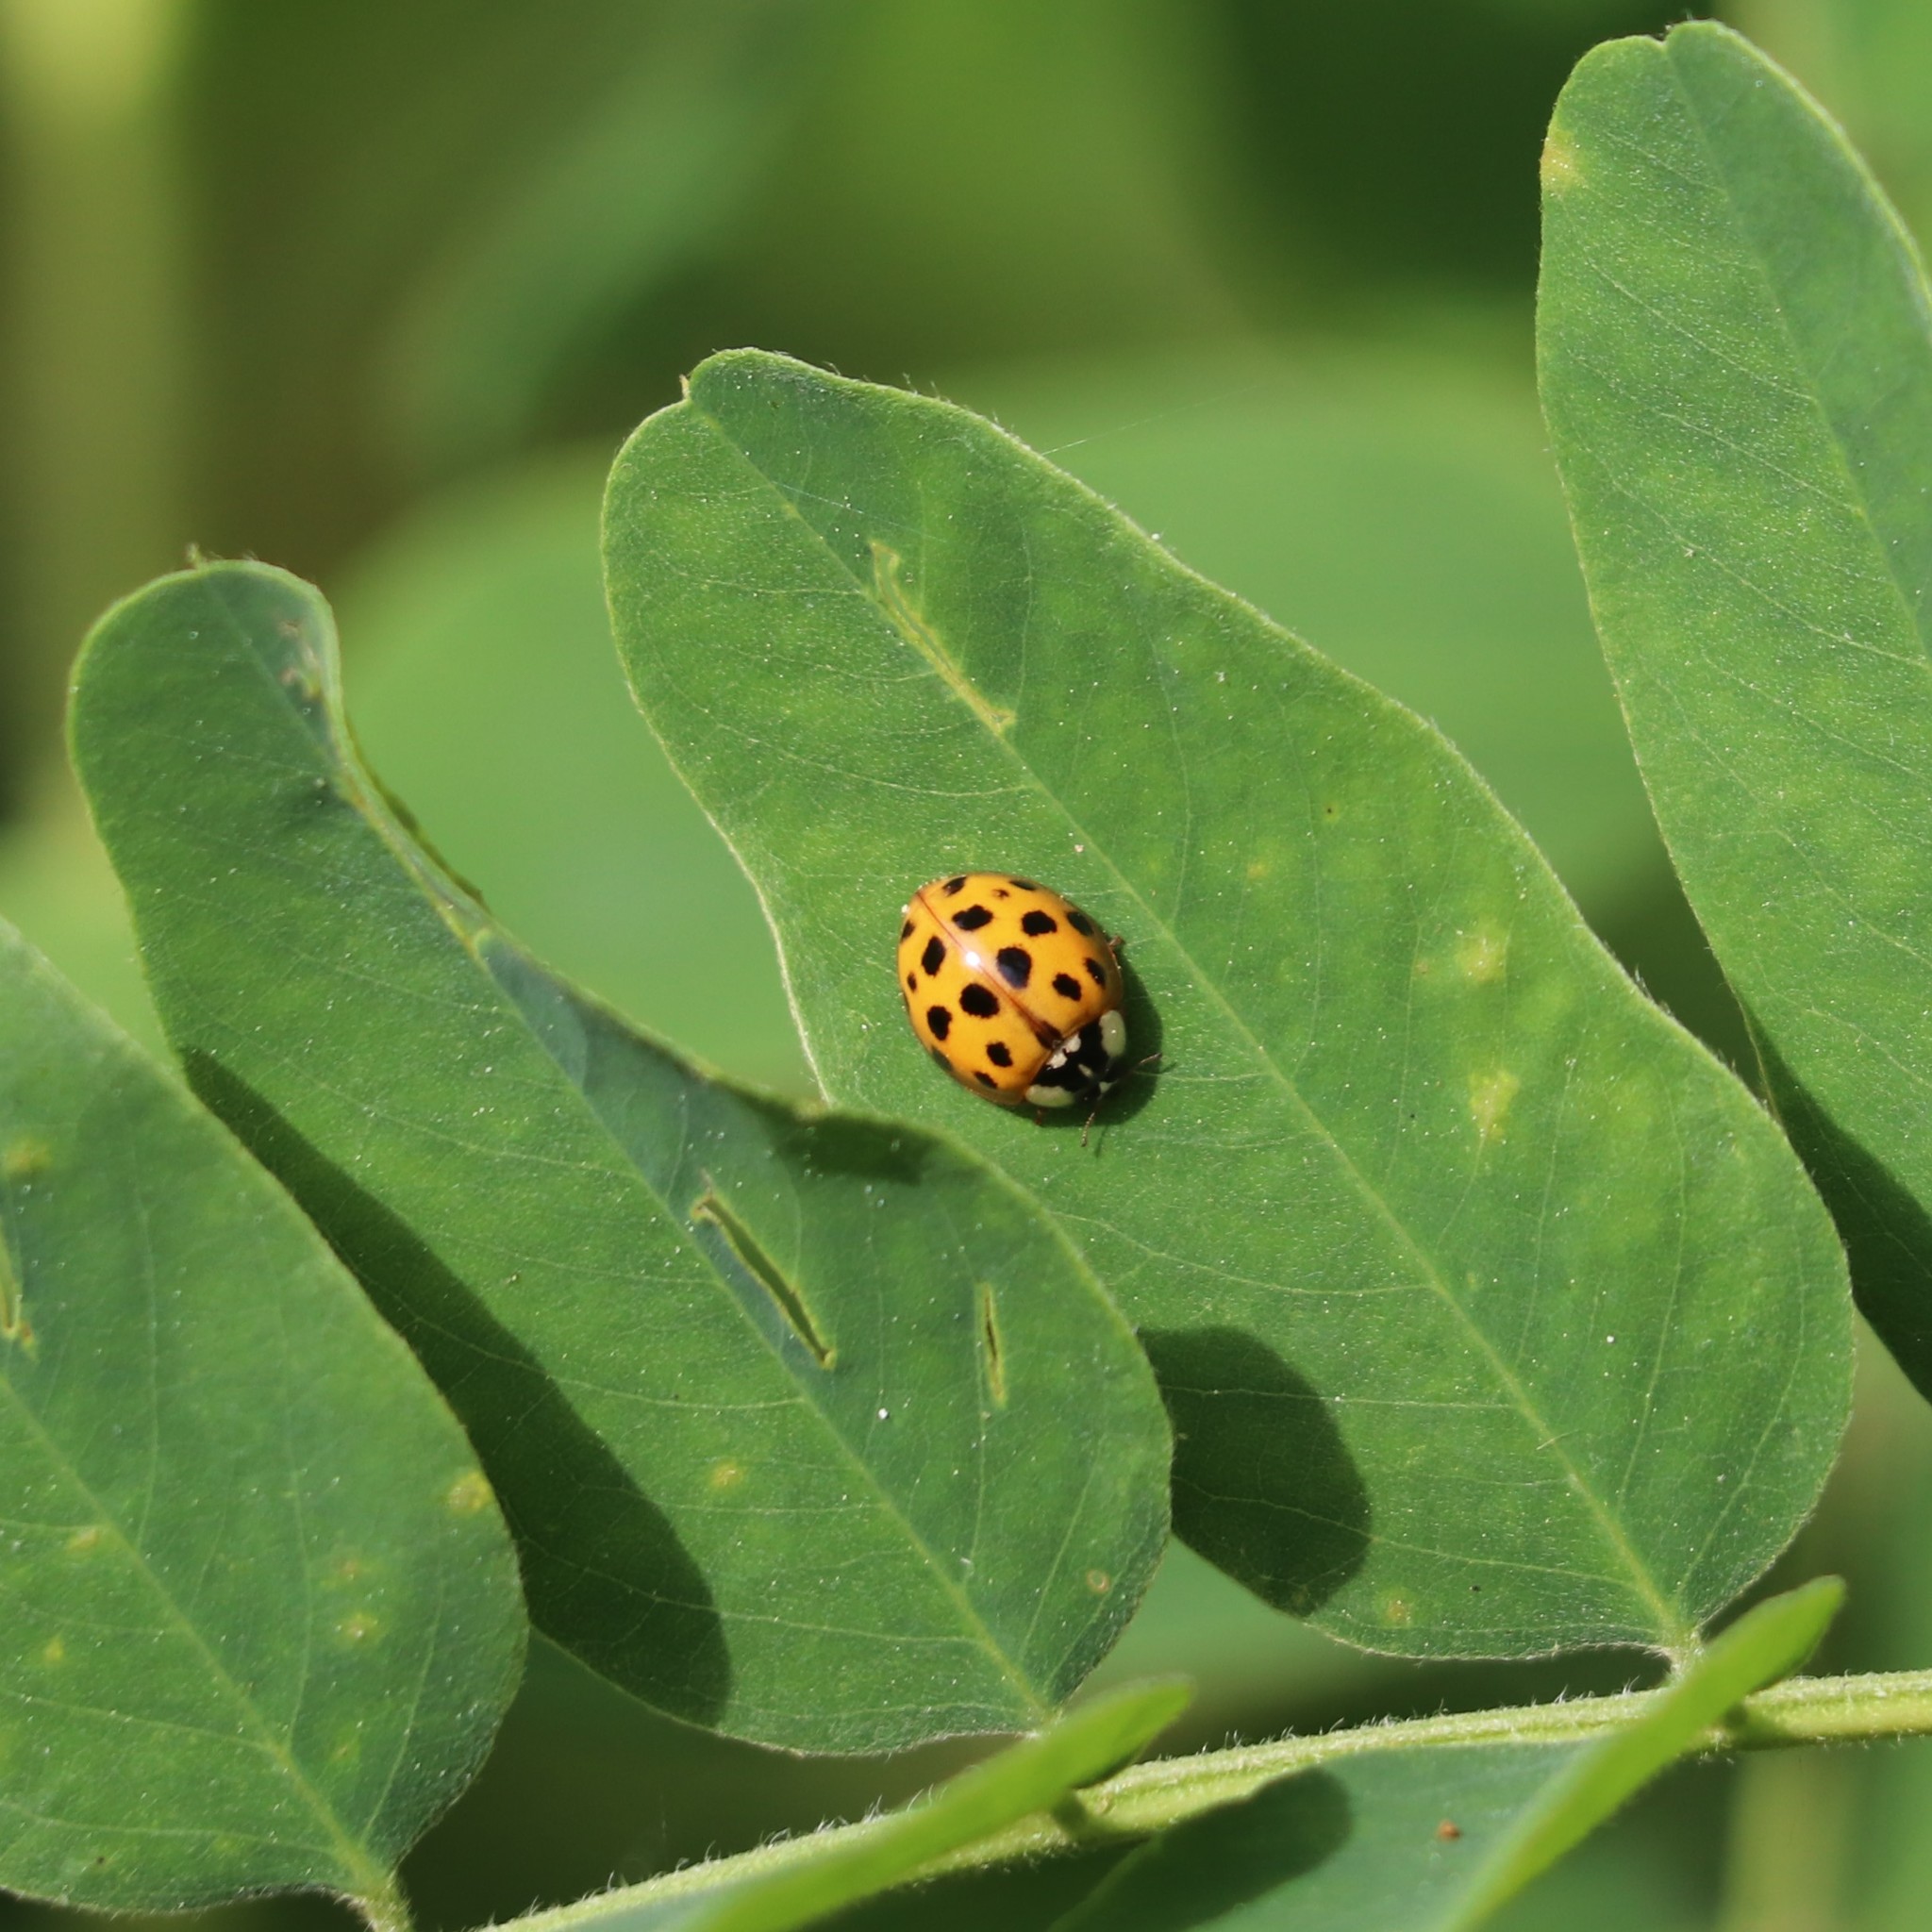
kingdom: Animalia
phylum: Arthropoda
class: Insecta
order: Coleoptera
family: Coccinellidae
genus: Harmonia
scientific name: Harmonia axyridis
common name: Harlequin ladybird
